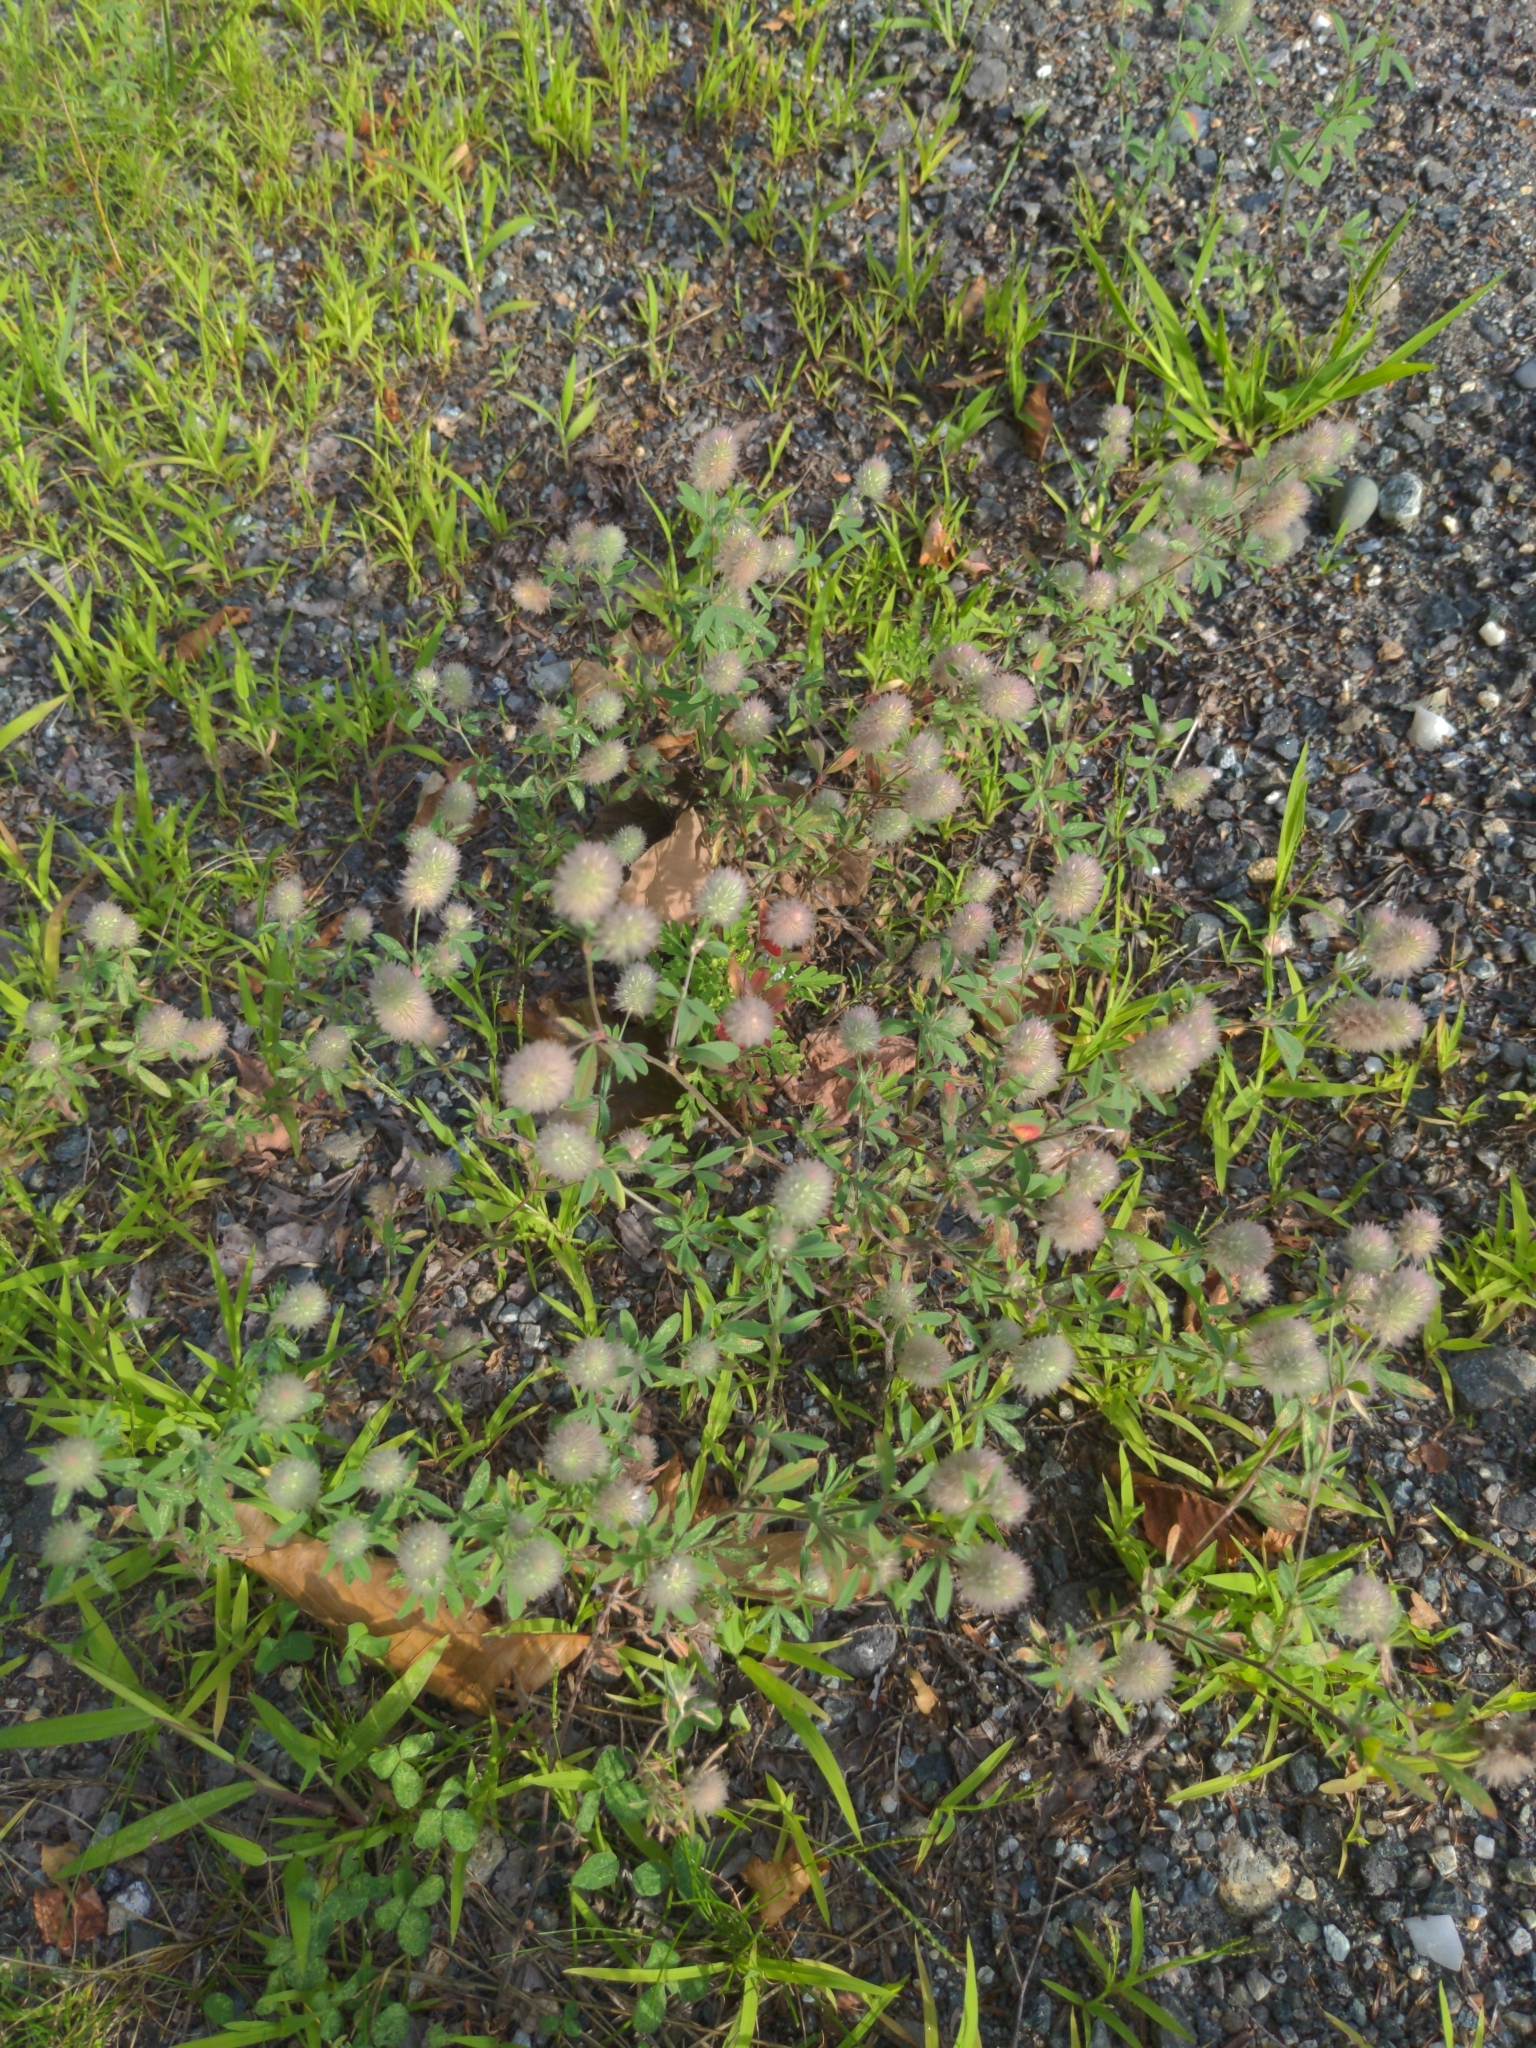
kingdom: Plantae
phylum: Tracheophyta
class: Magnoliopsida
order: Fabales
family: Fabaceae
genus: Trifolium
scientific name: Trifolium arvense
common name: Hare's-foot clover
